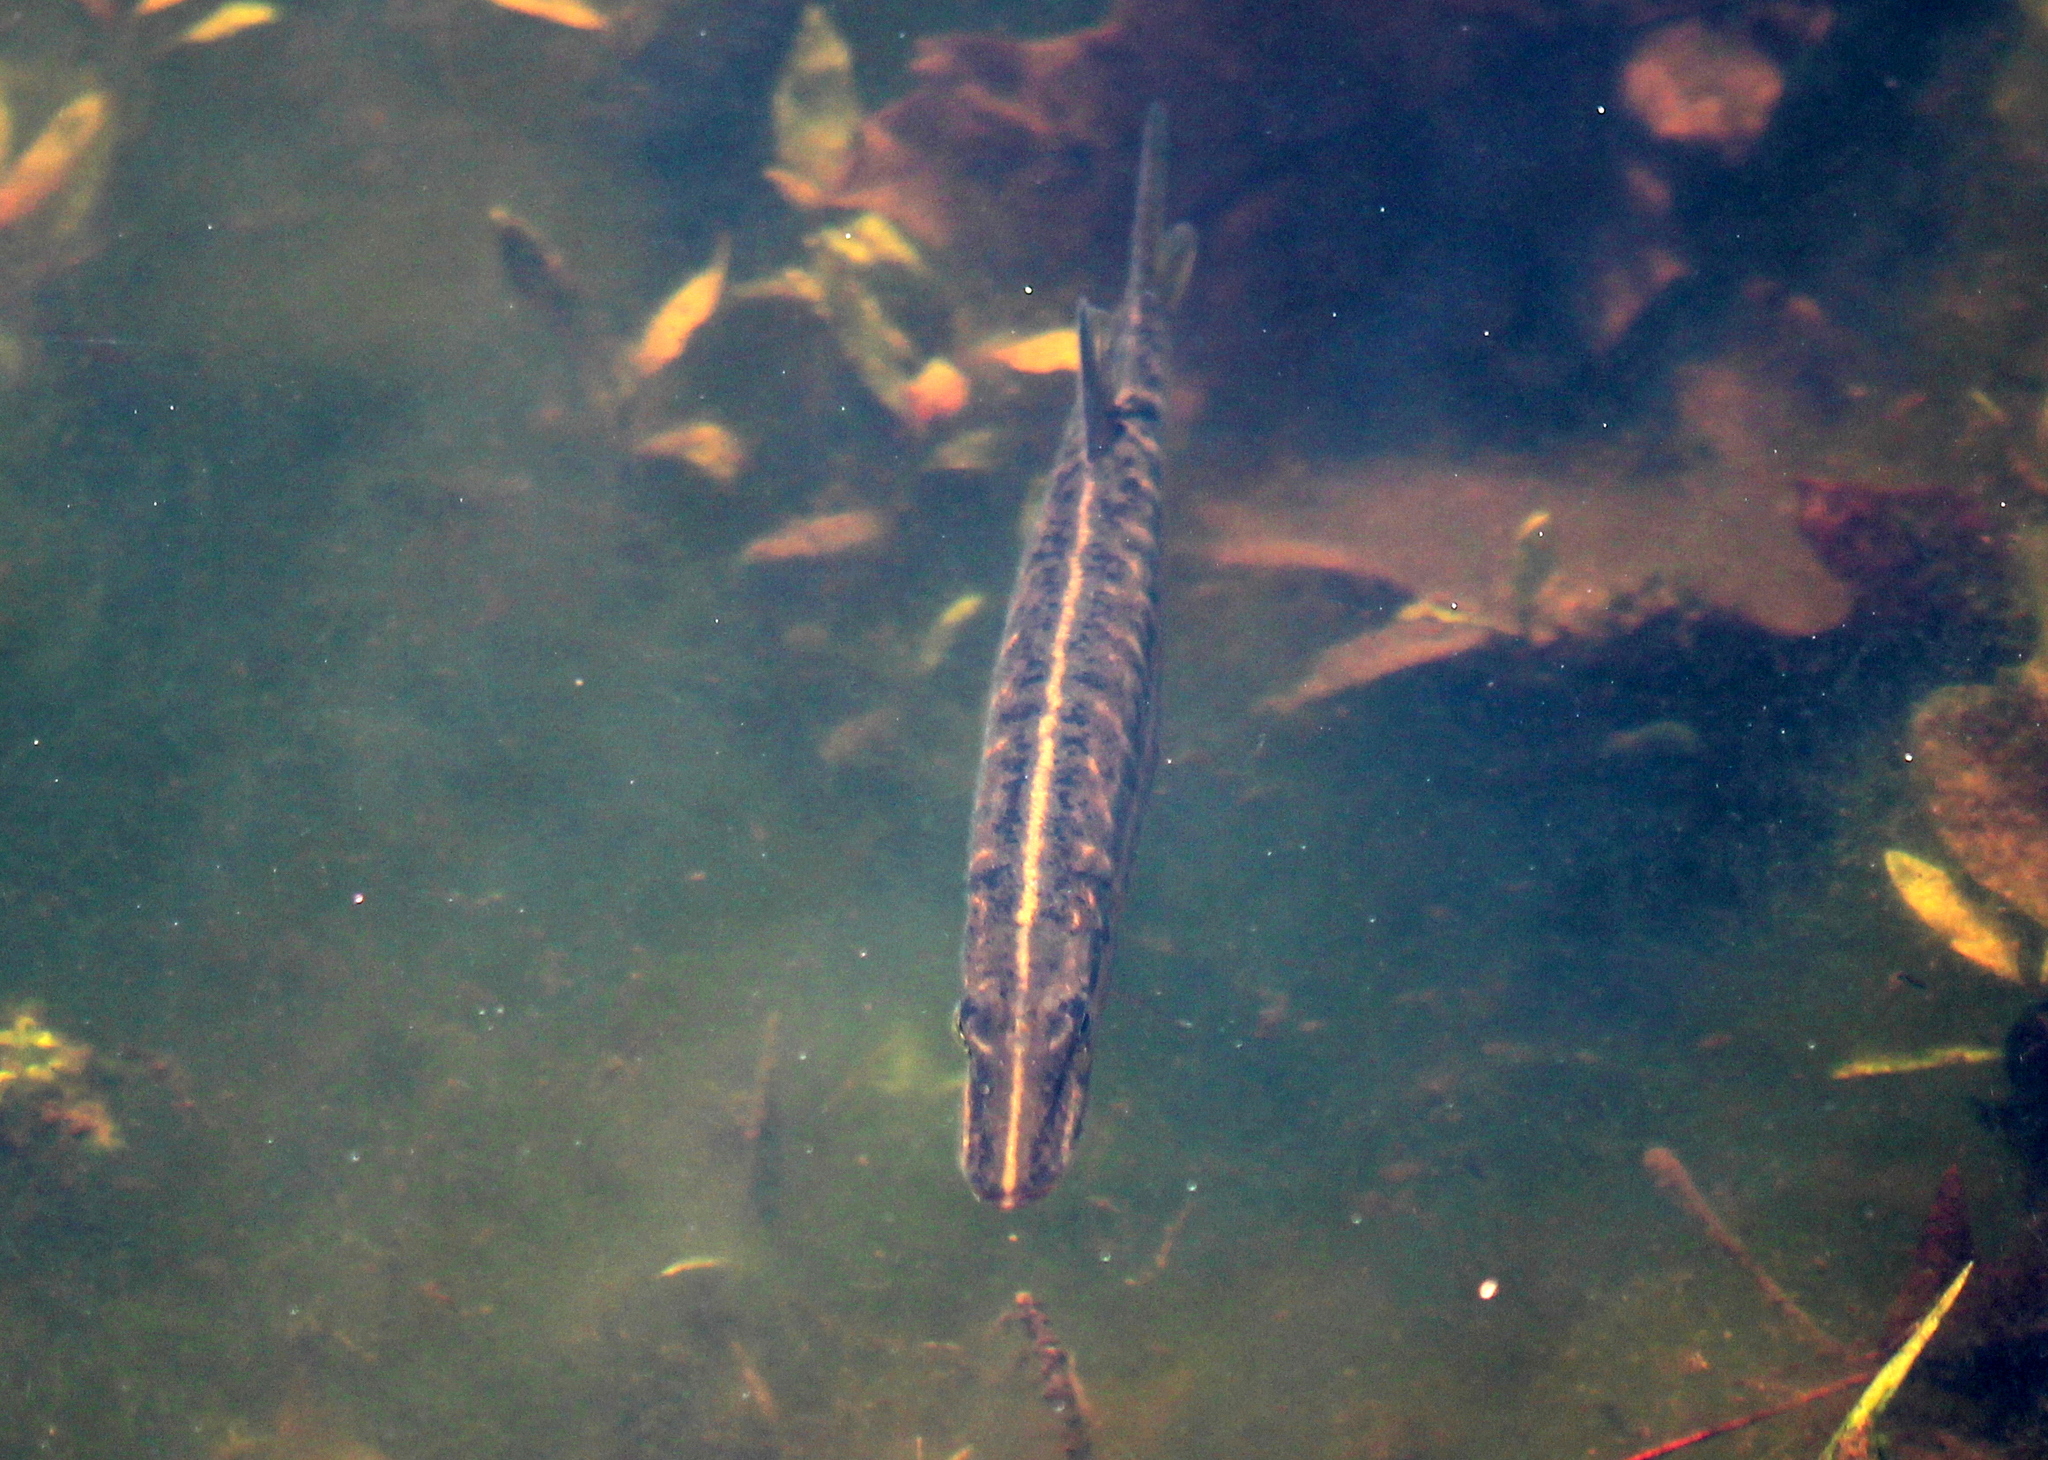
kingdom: Animalia
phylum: Chordata
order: Esociformes
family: Esocidae
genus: Esox
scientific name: Esox niger
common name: Chain pickerel
